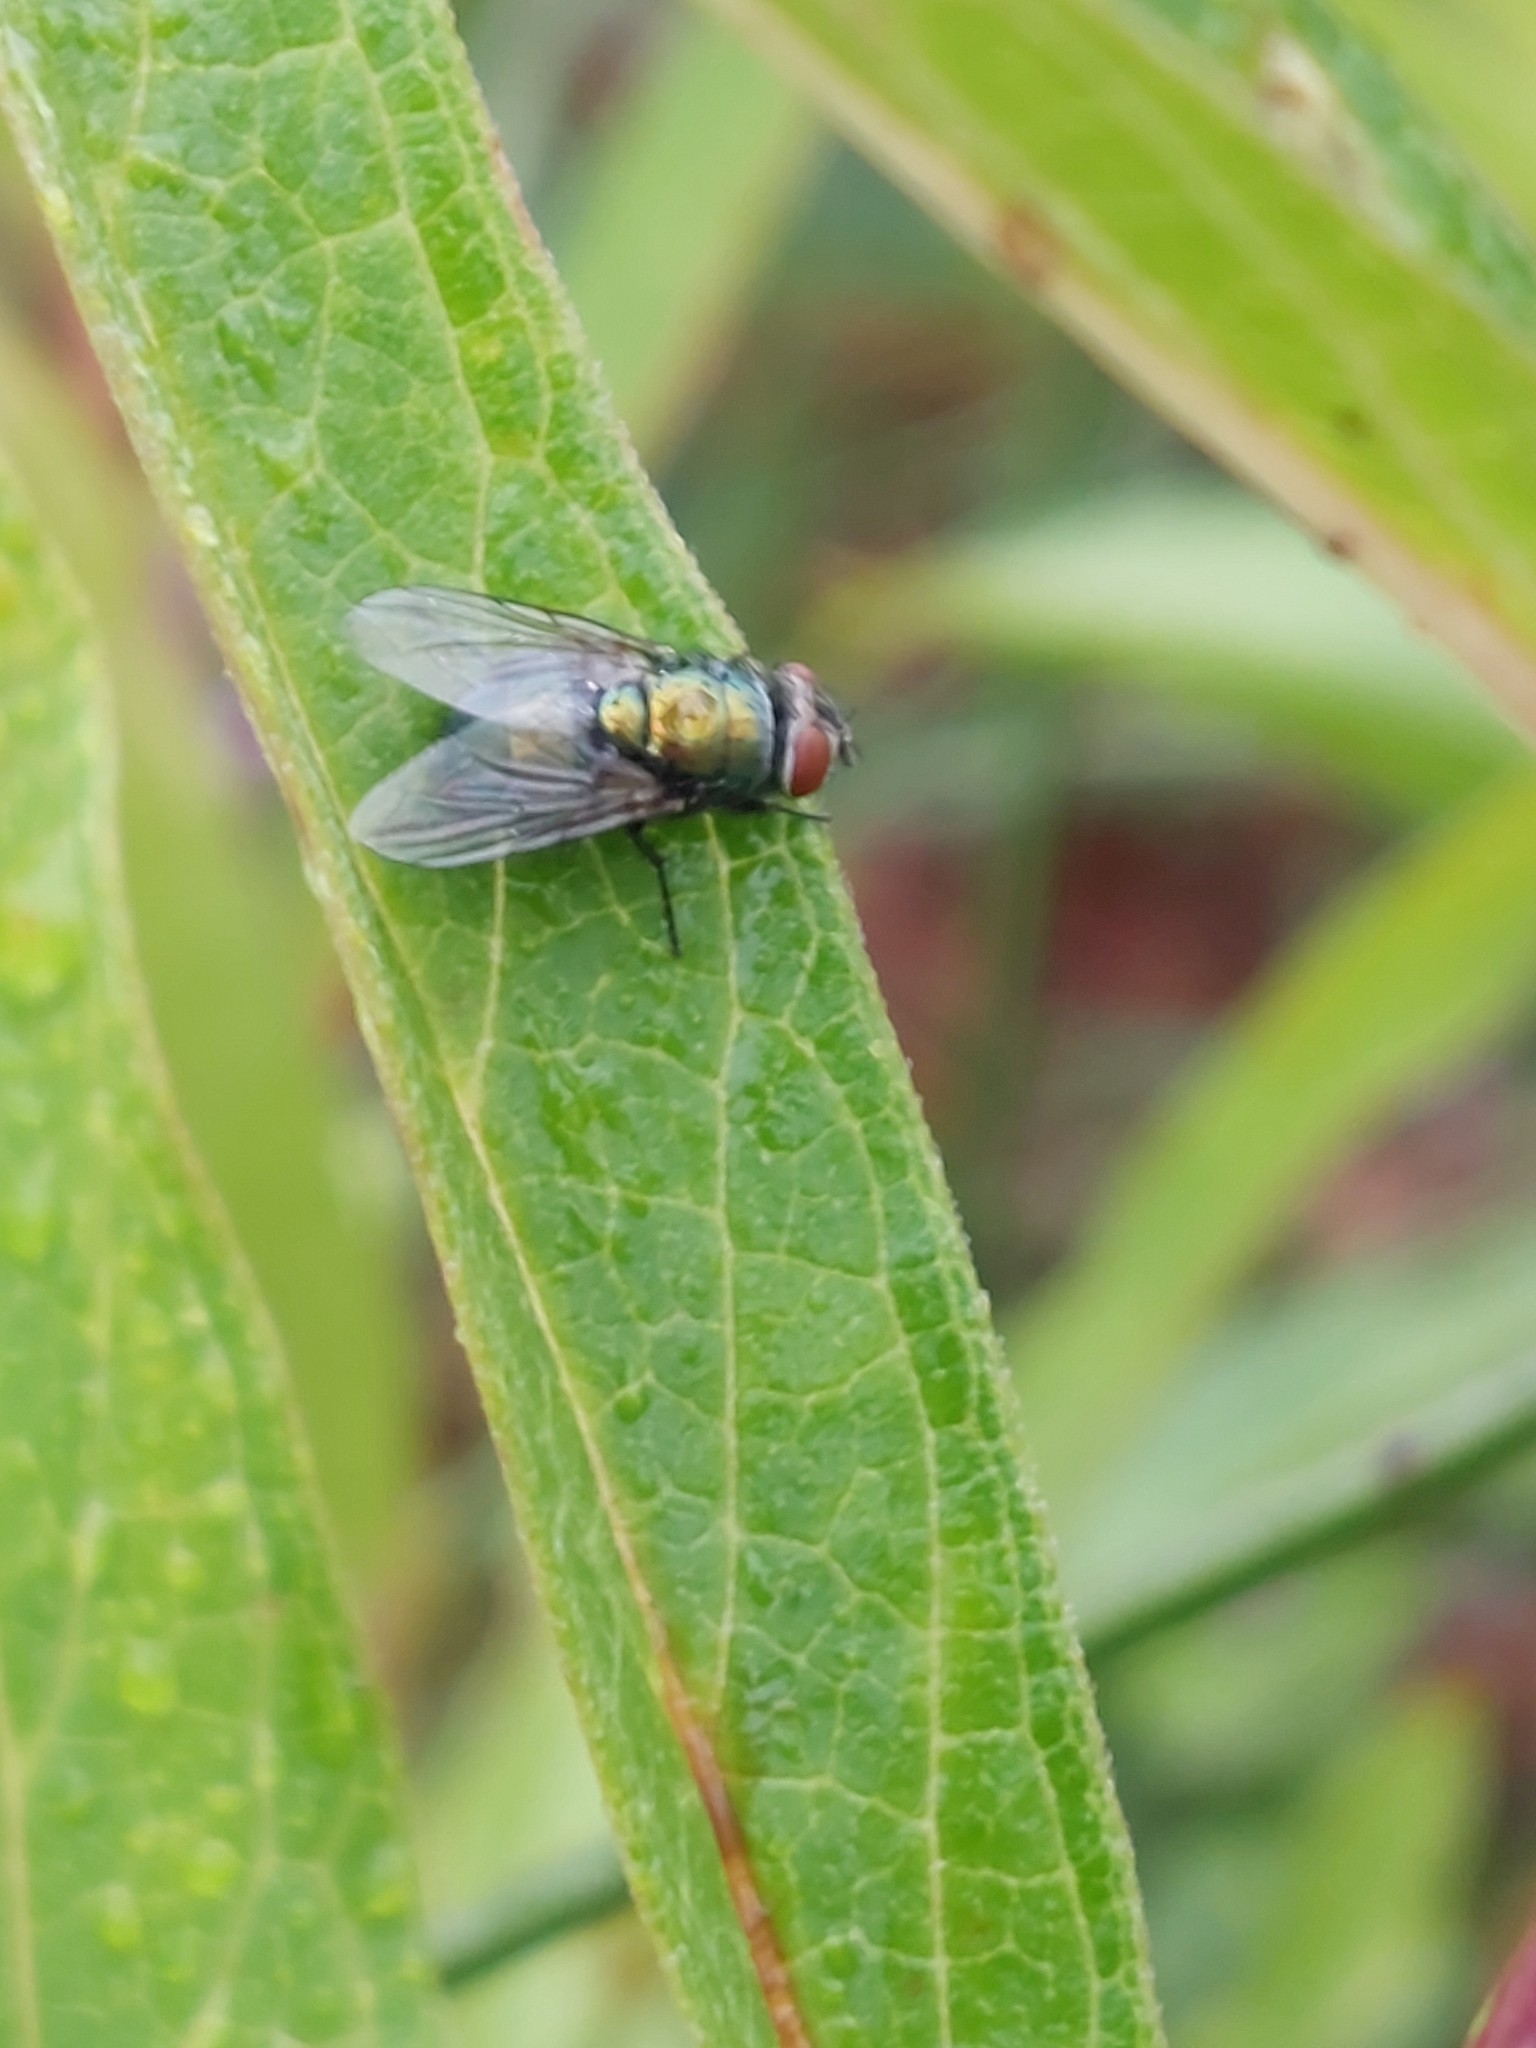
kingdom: Animalia
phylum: Arthropoda
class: Insecta
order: Diptera
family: Calliphoridae
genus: Lucilia
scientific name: Lucilia sericata
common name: Blow fly
